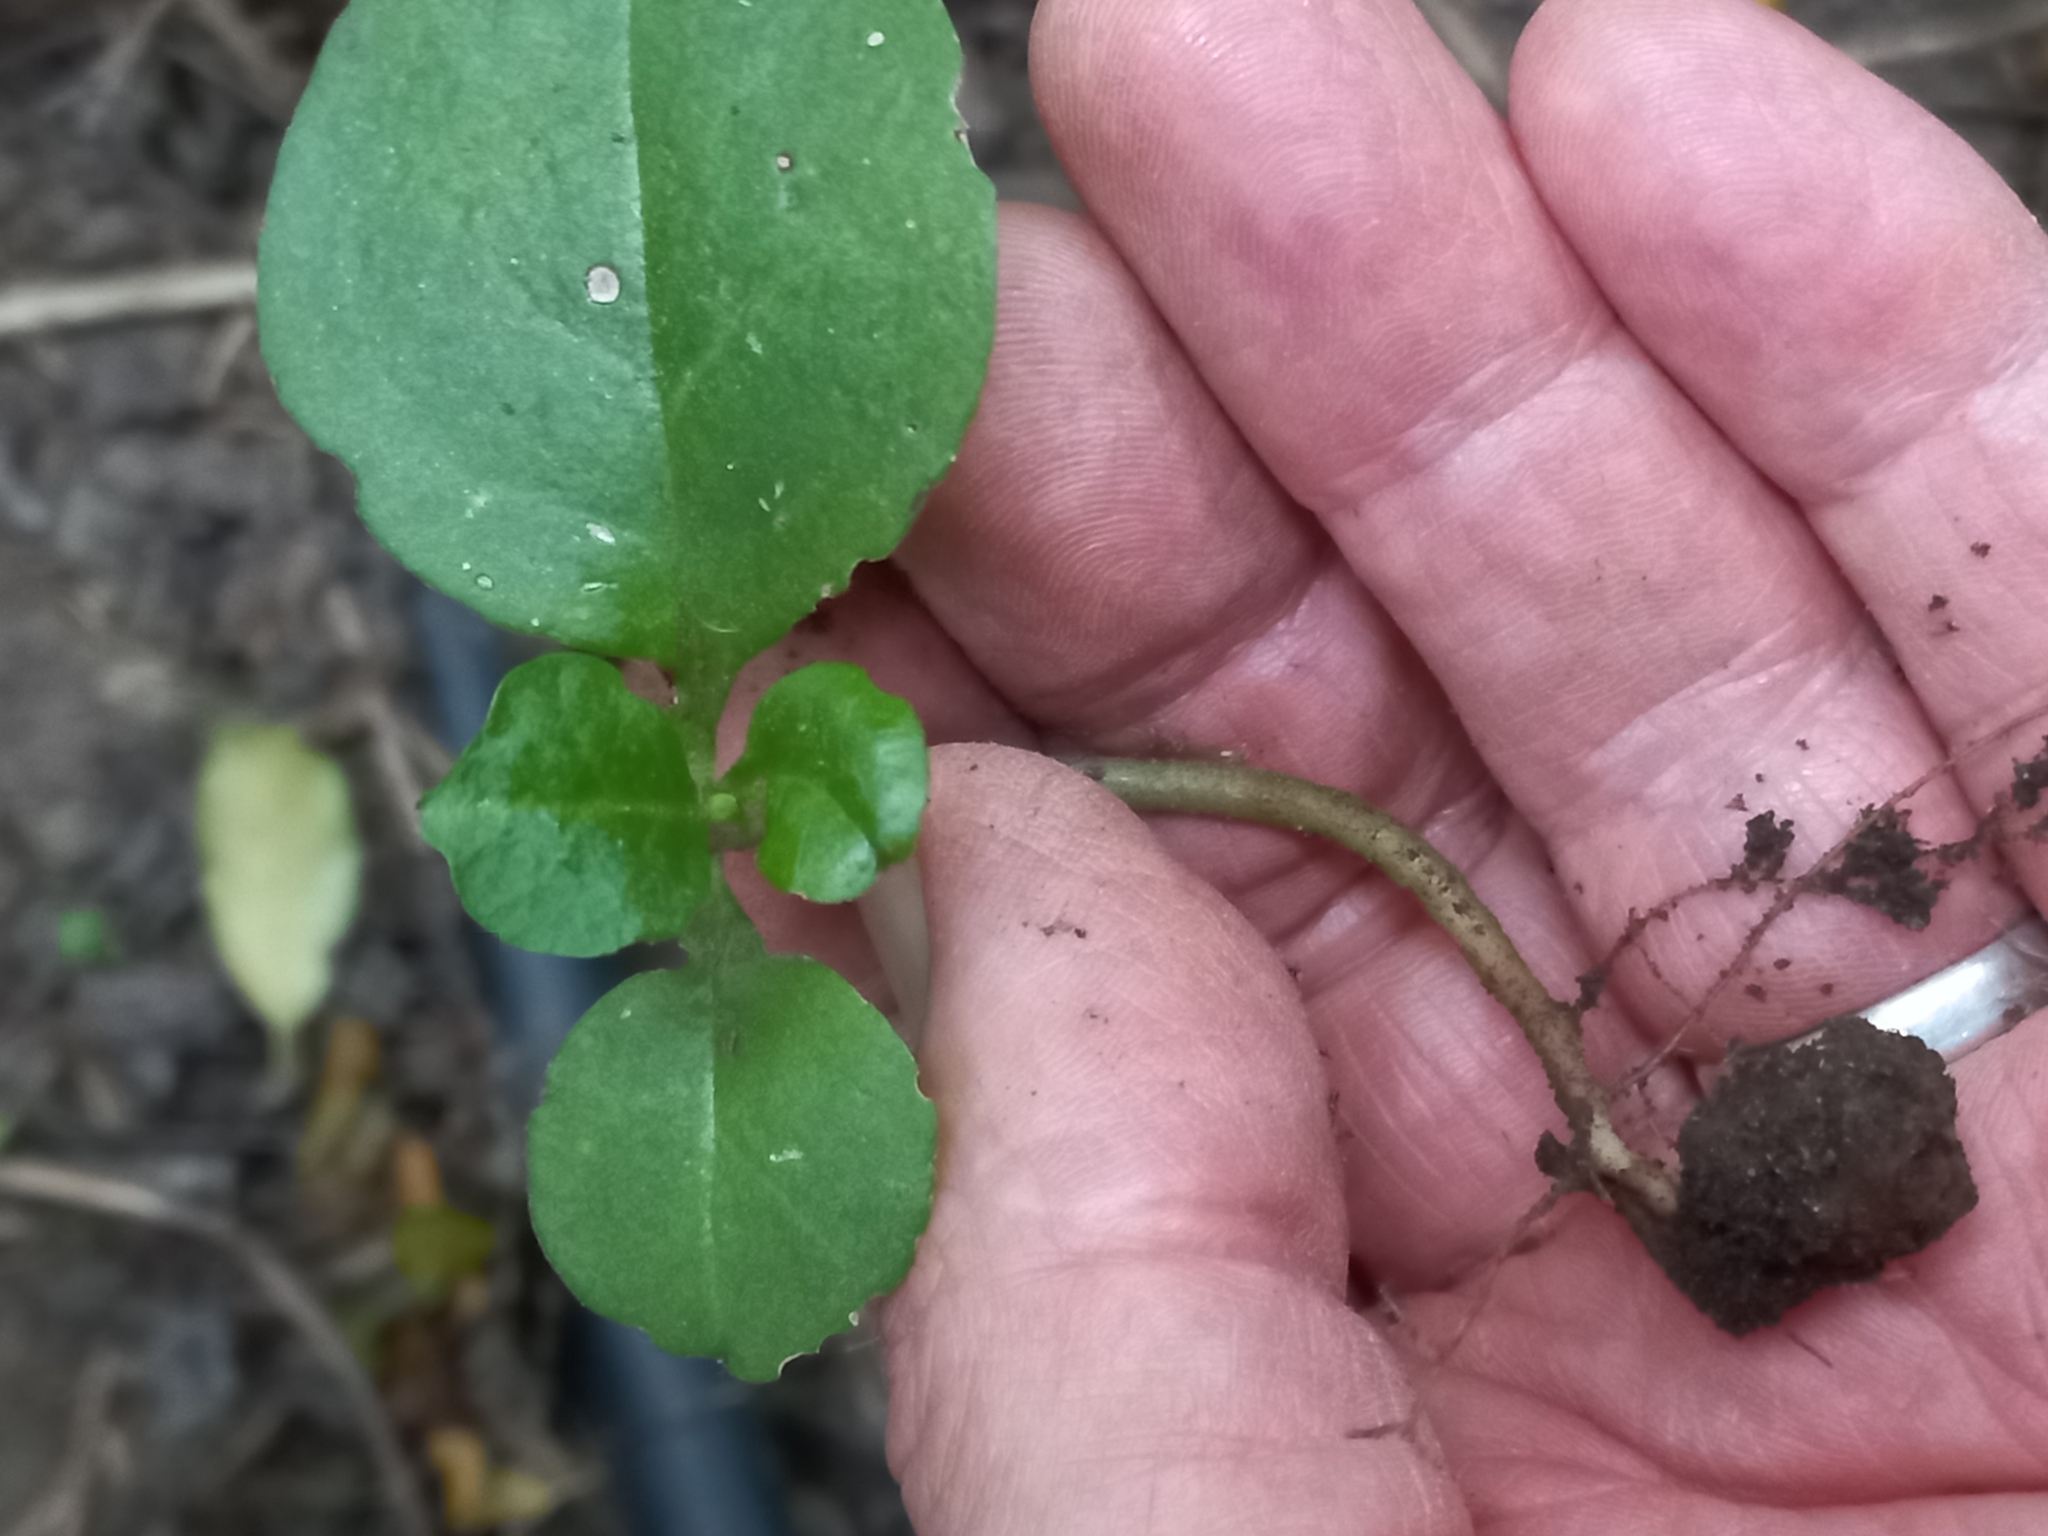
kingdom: Plantae
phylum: Tracheophyta
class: Magnoliopsida
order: Caryophyllales
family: Basellaceae
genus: Anredera
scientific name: Anredera cordifolia
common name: Heartleaf madeiravine
